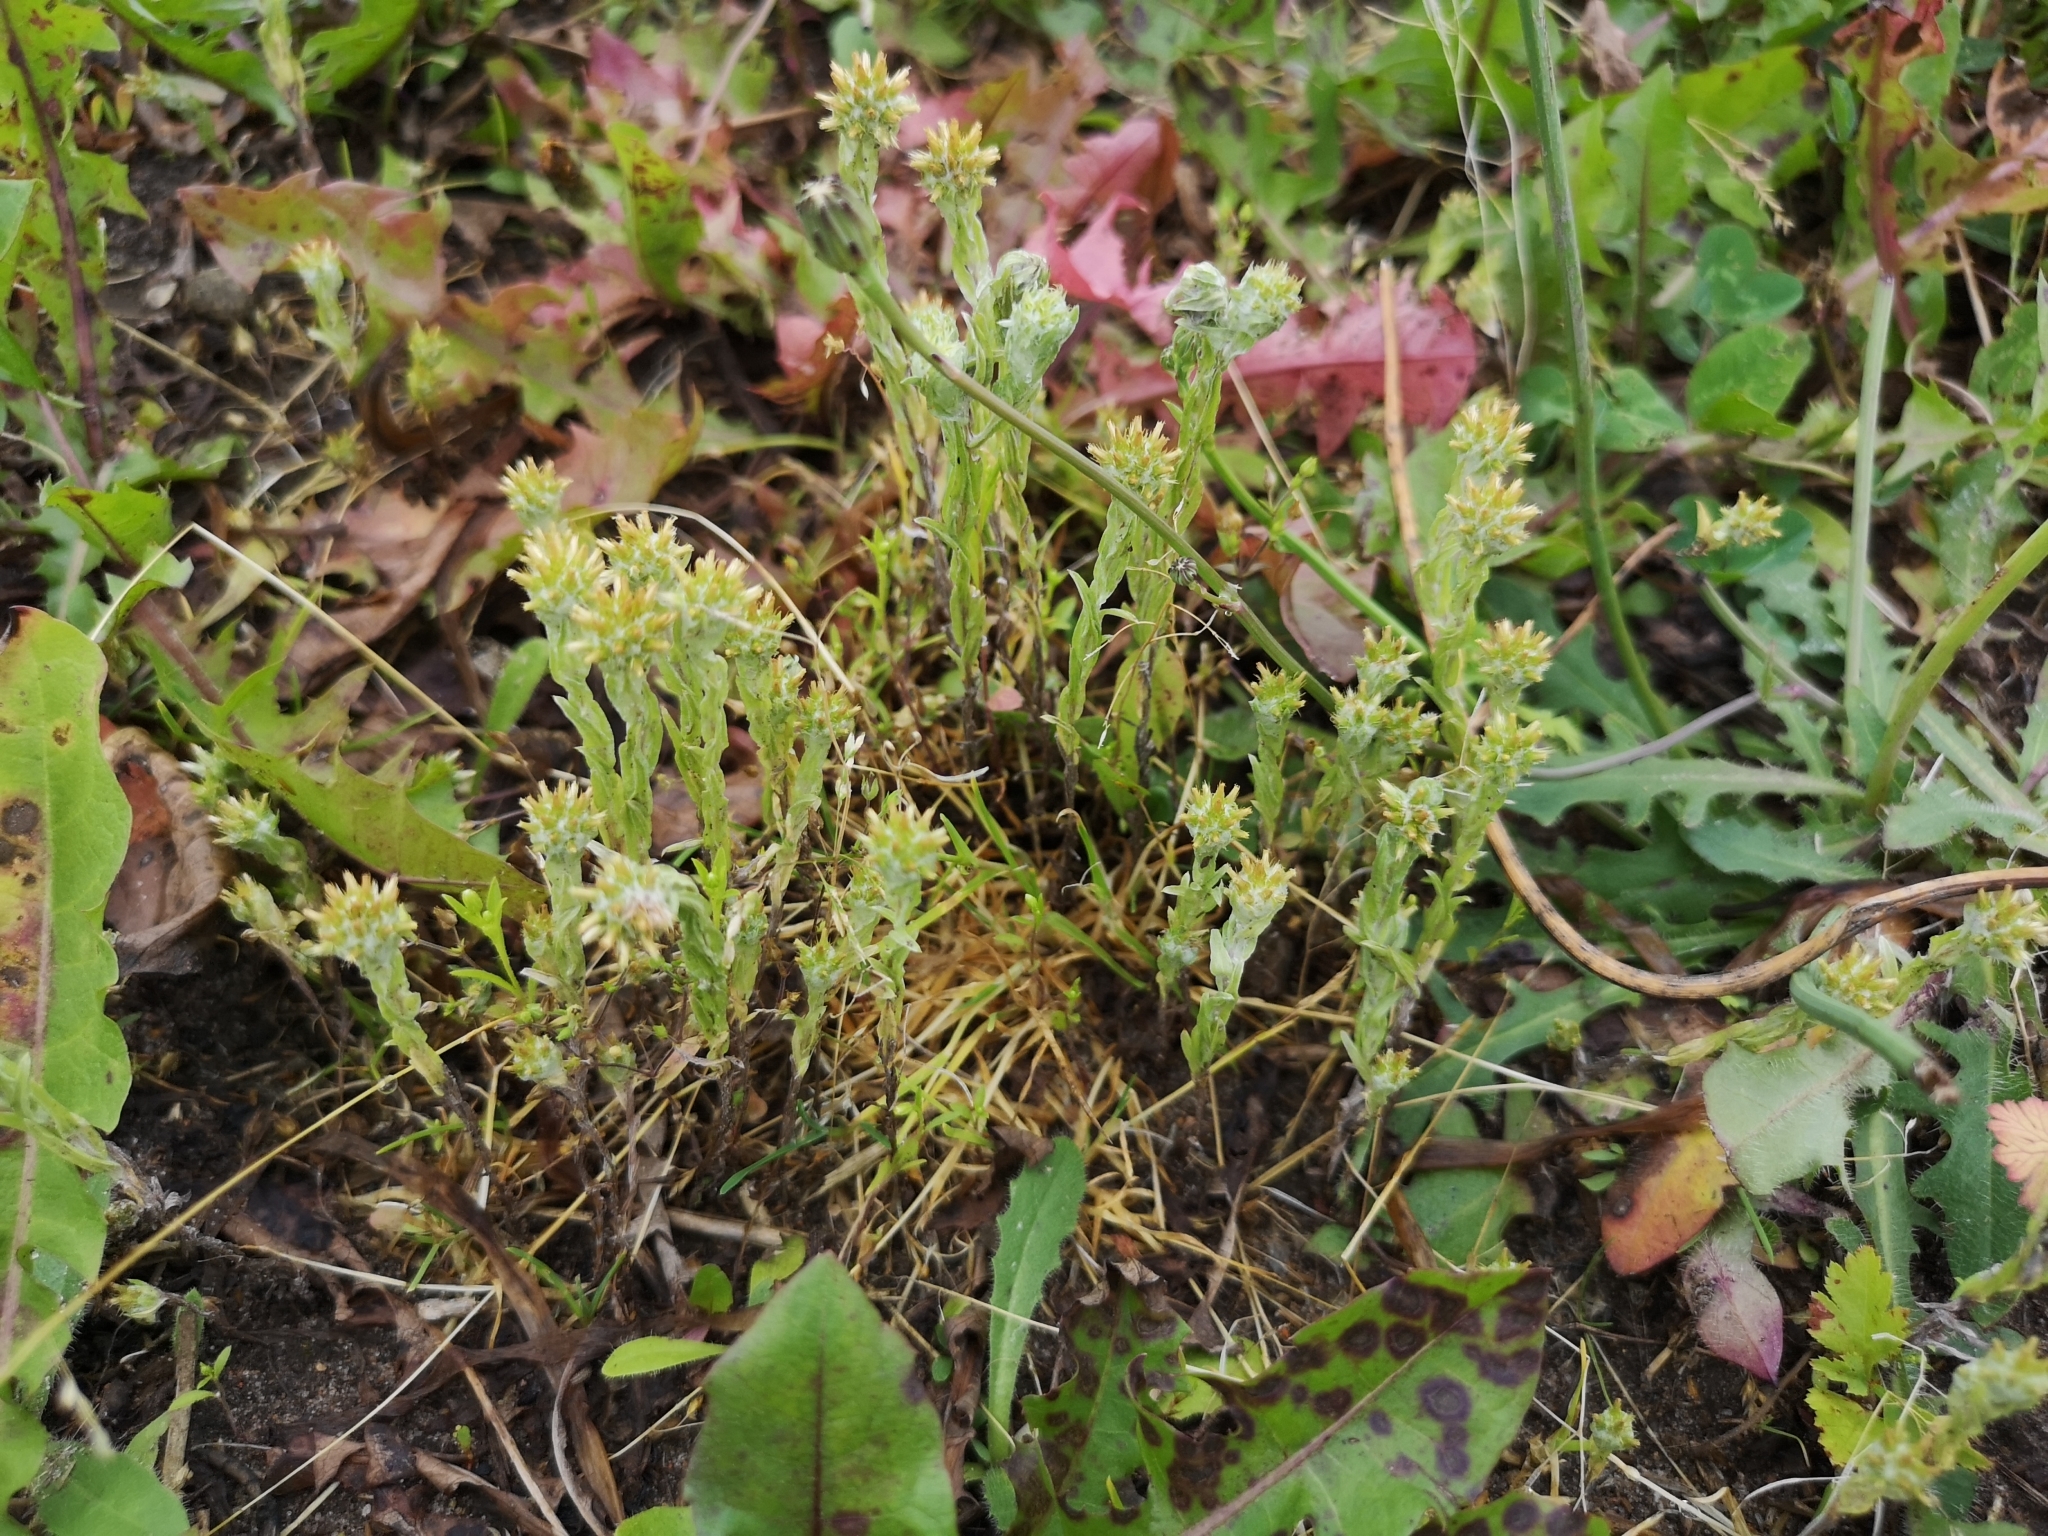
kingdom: Plantae
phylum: Tracheophyta
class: Magnoliopsida
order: Asterales
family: Asteraceae
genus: Filago
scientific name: Filago germanica
